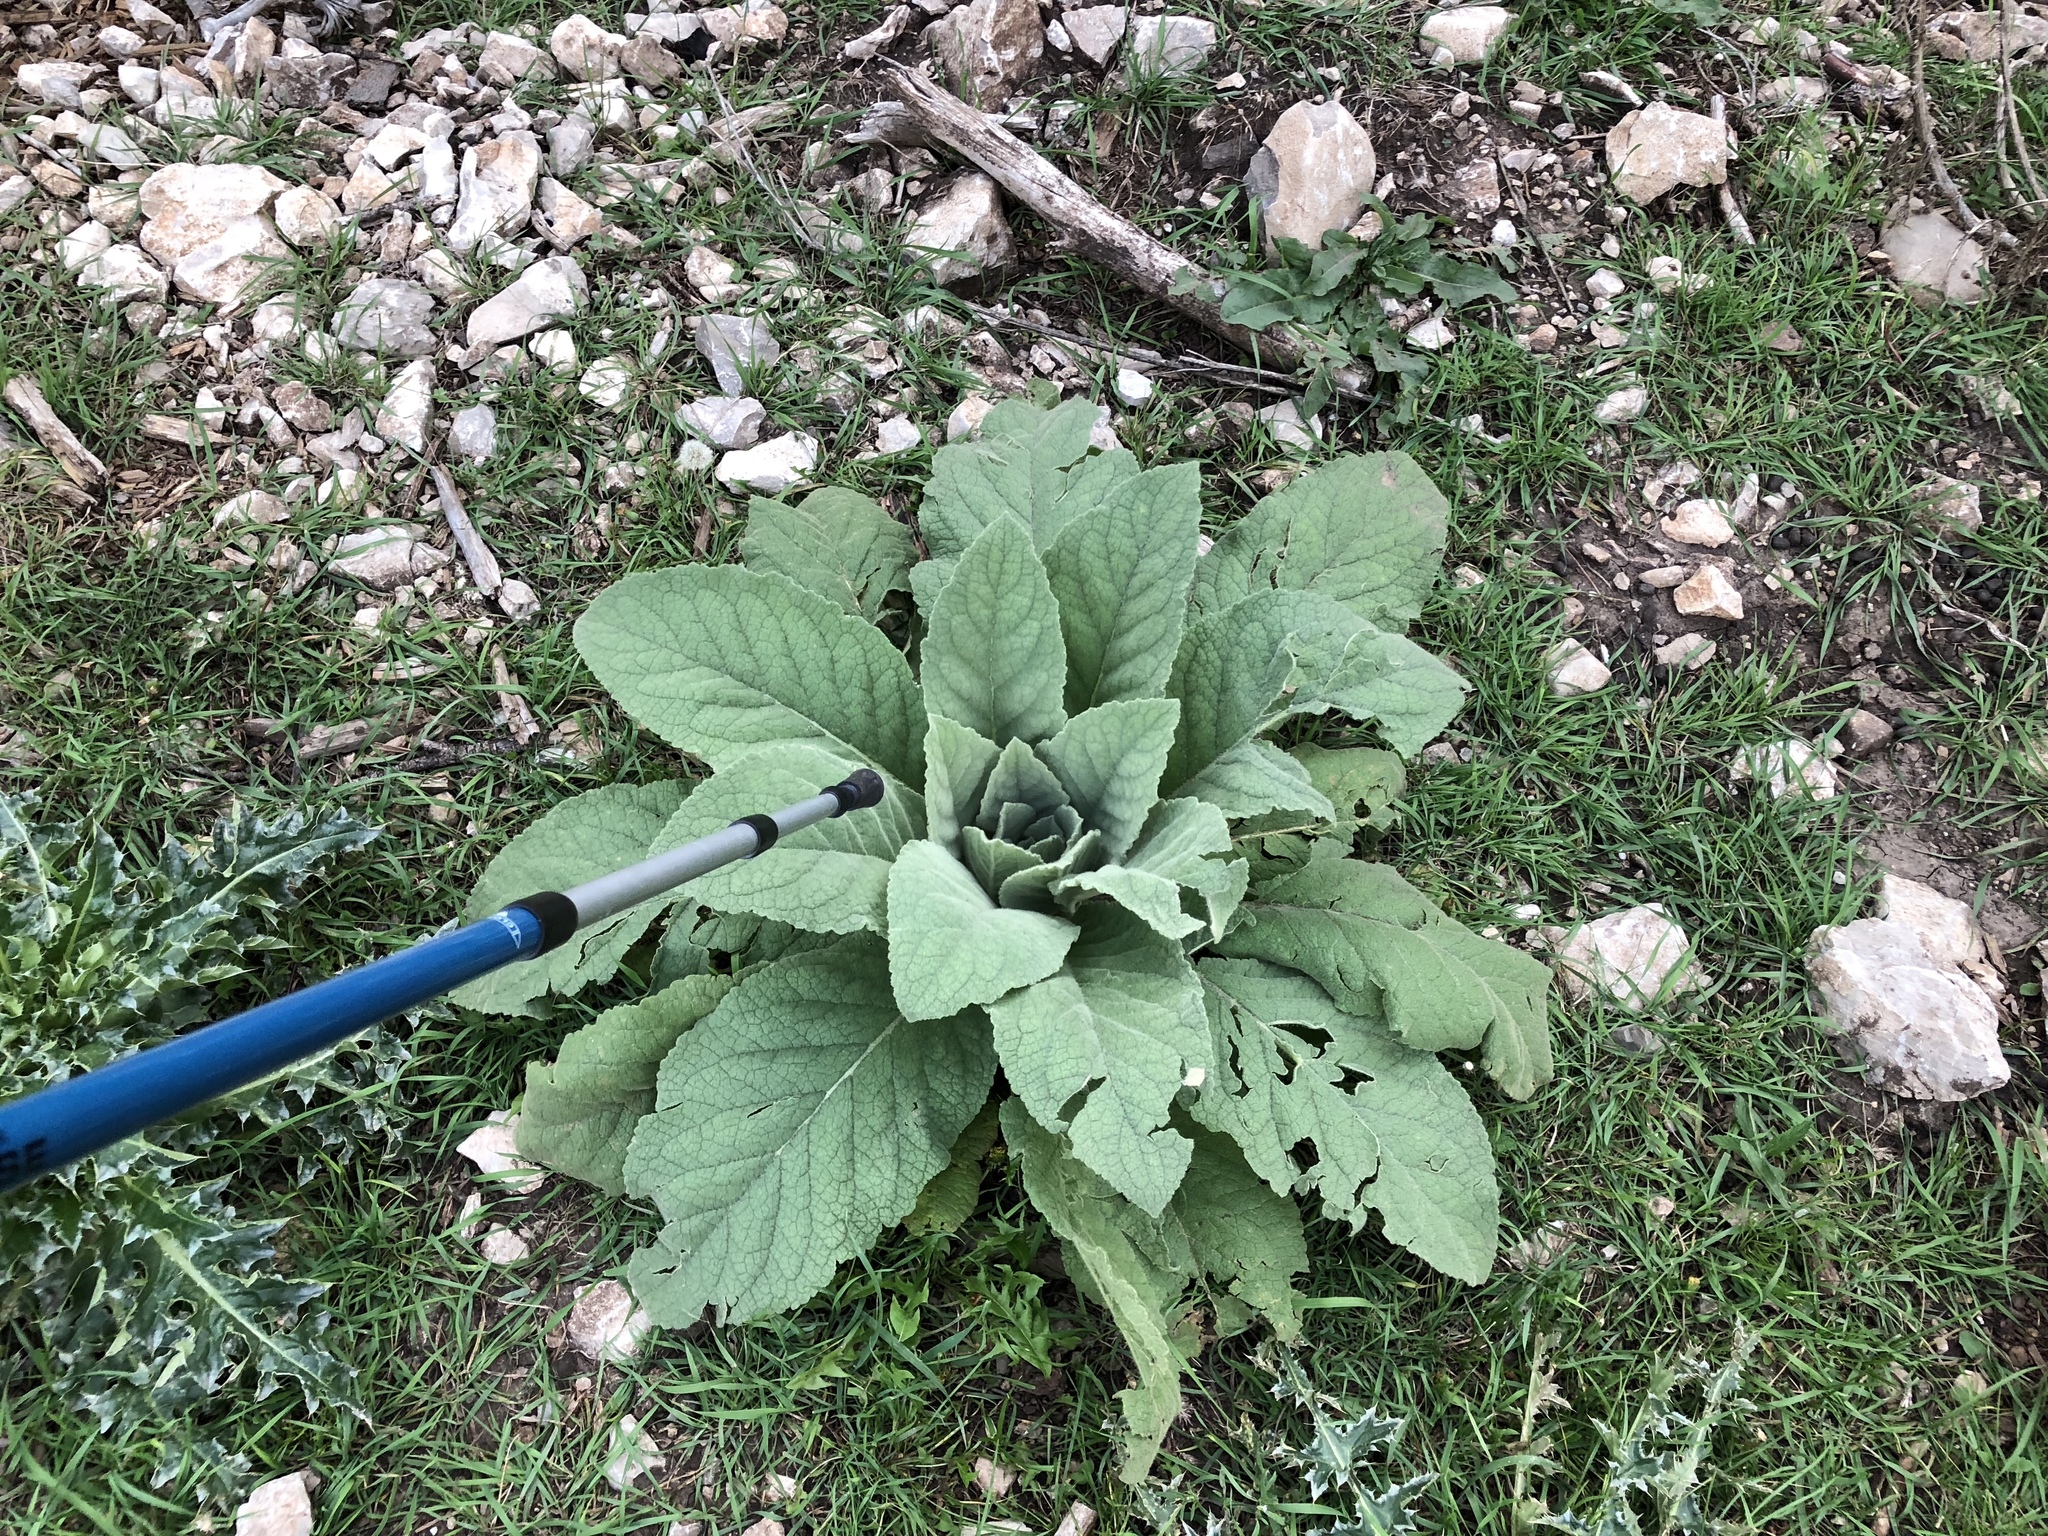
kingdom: Plantae
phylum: Tracheophyta
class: Magnoliopsida
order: Lamiales
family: Scrophulariaceae
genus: Verbascum
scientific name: Verbascum thapsus
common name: Common mullein
